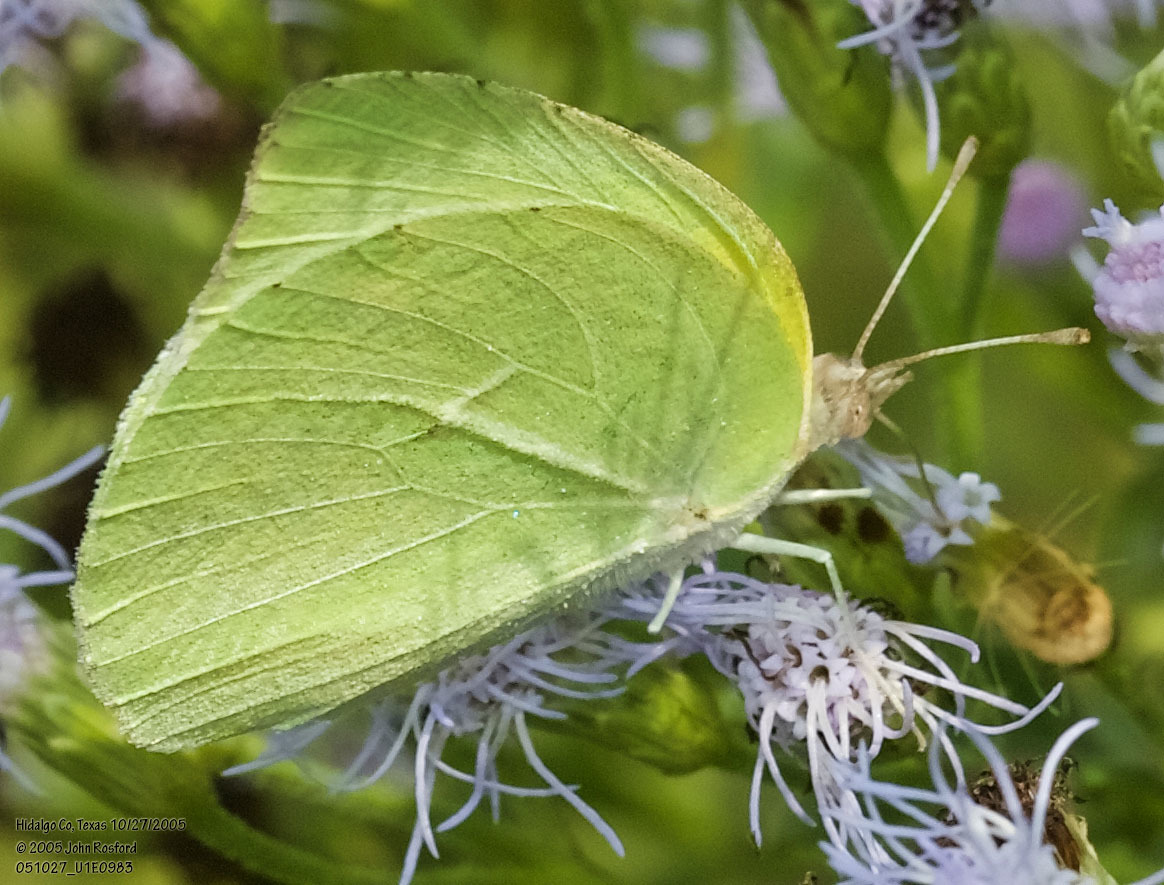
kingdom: Animalia
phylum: Arthropoda
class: Insecta
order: Lepidoptera
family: Pieridae
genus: Kricogonia
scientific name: Kricogonia lyside
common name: Guayacan sulphur,
